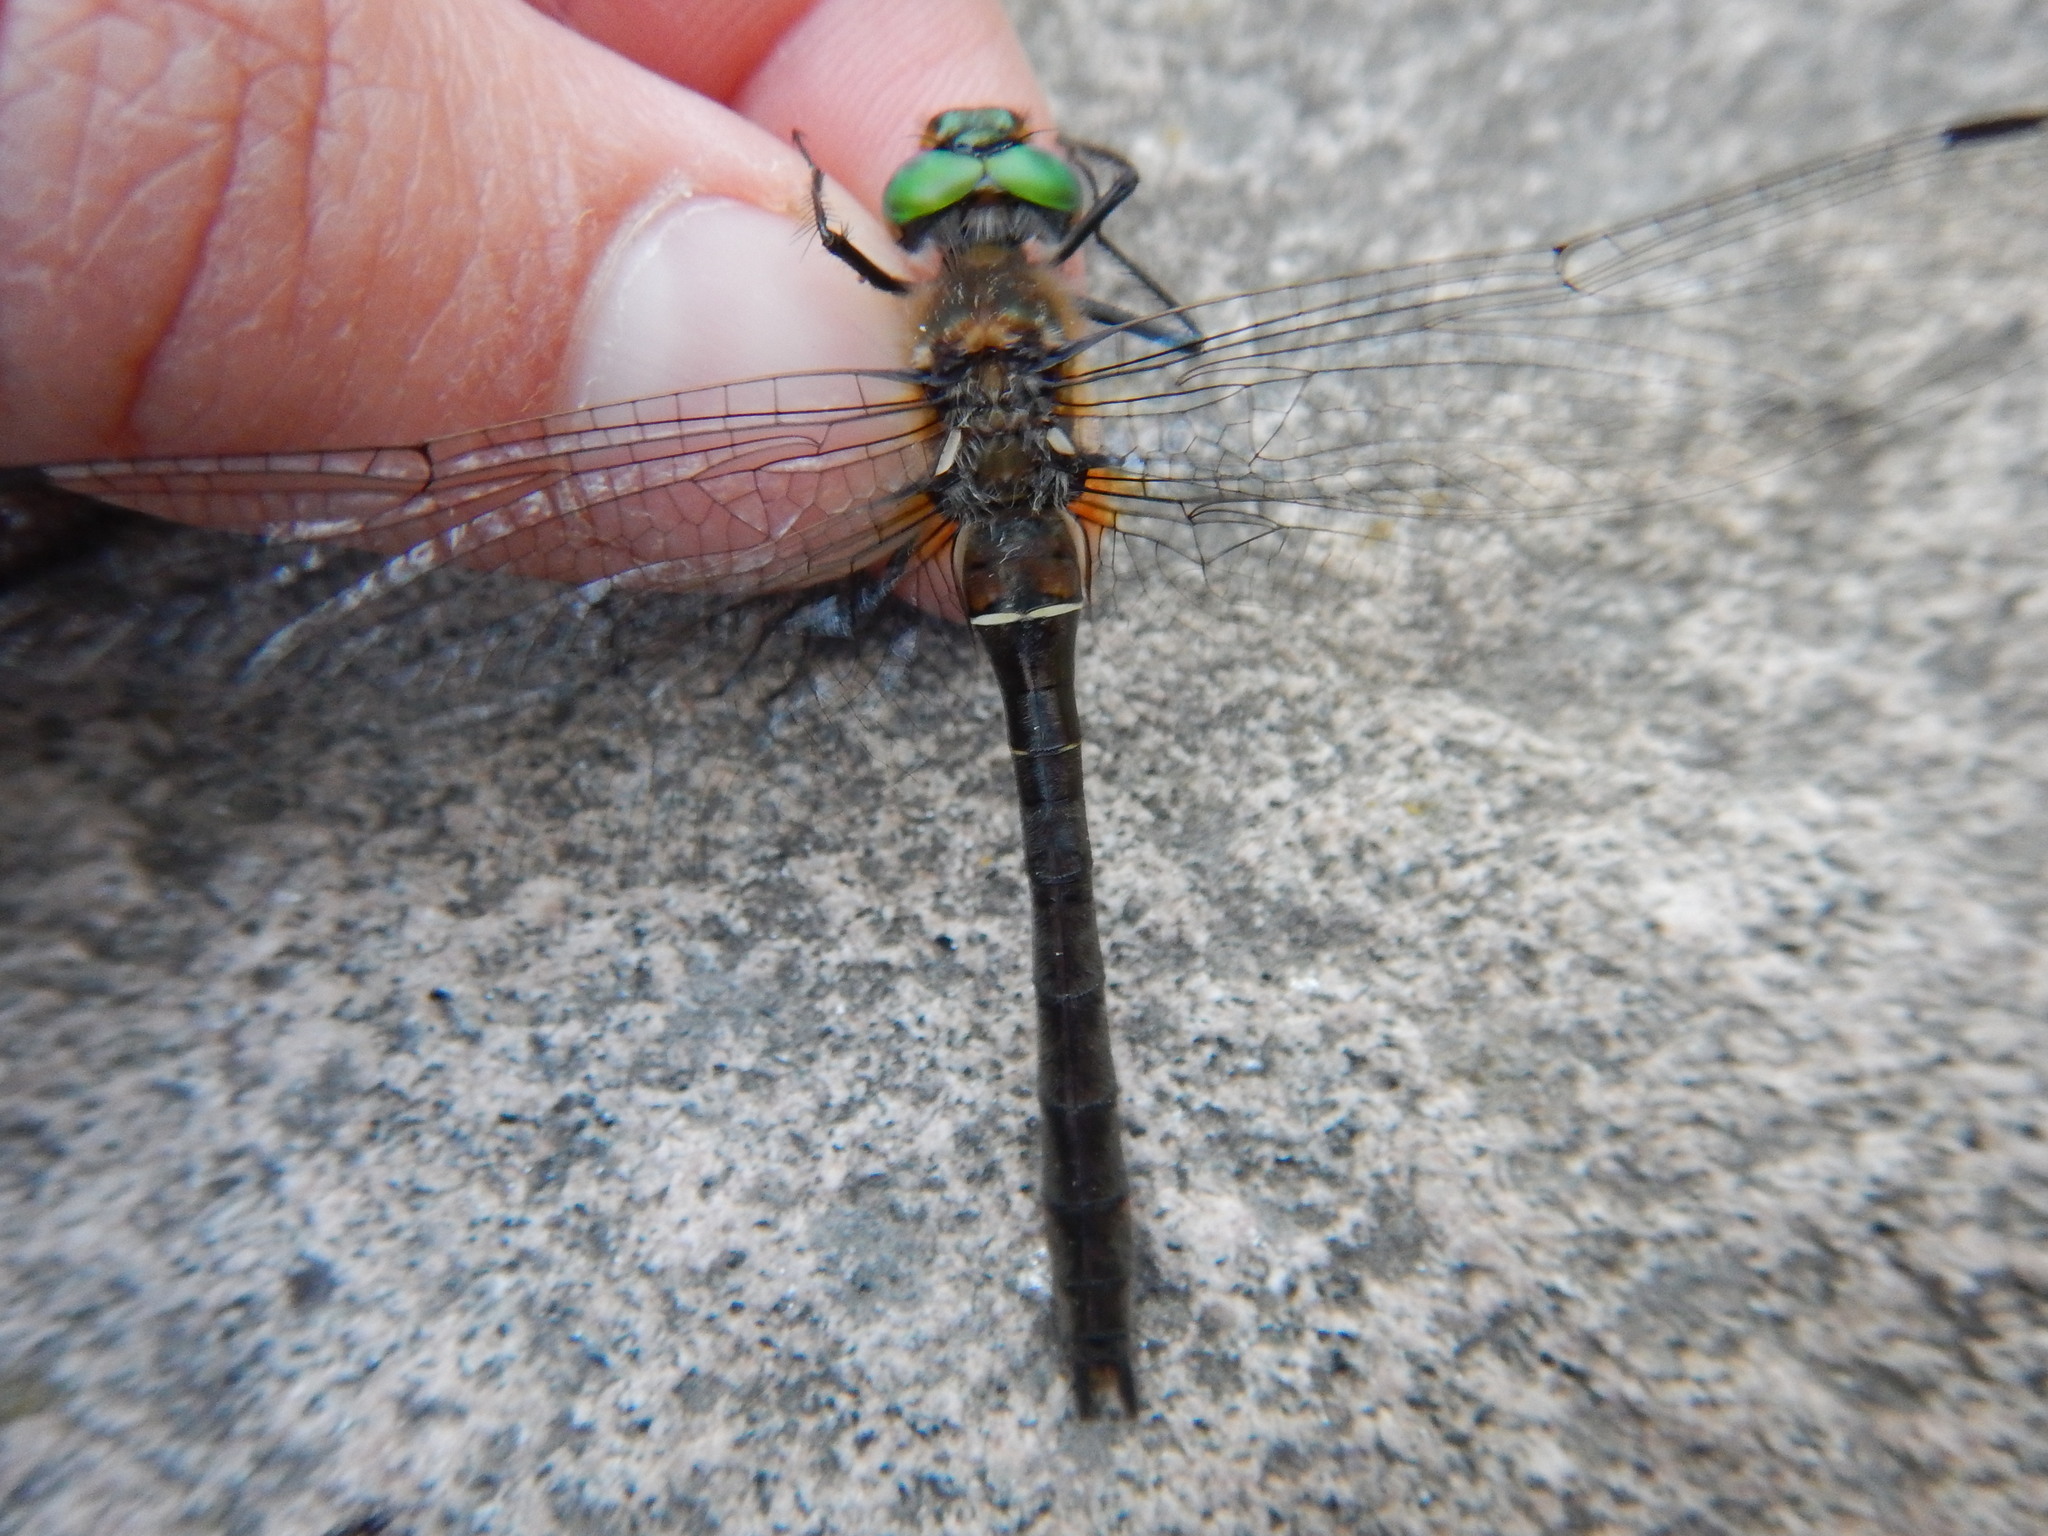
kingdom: Animalia
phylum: Arthropoda
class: Insecta
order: Odonata
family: Corduliidae
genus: Cordulia
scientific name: Cordulia shurtleffii
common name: American emerald
